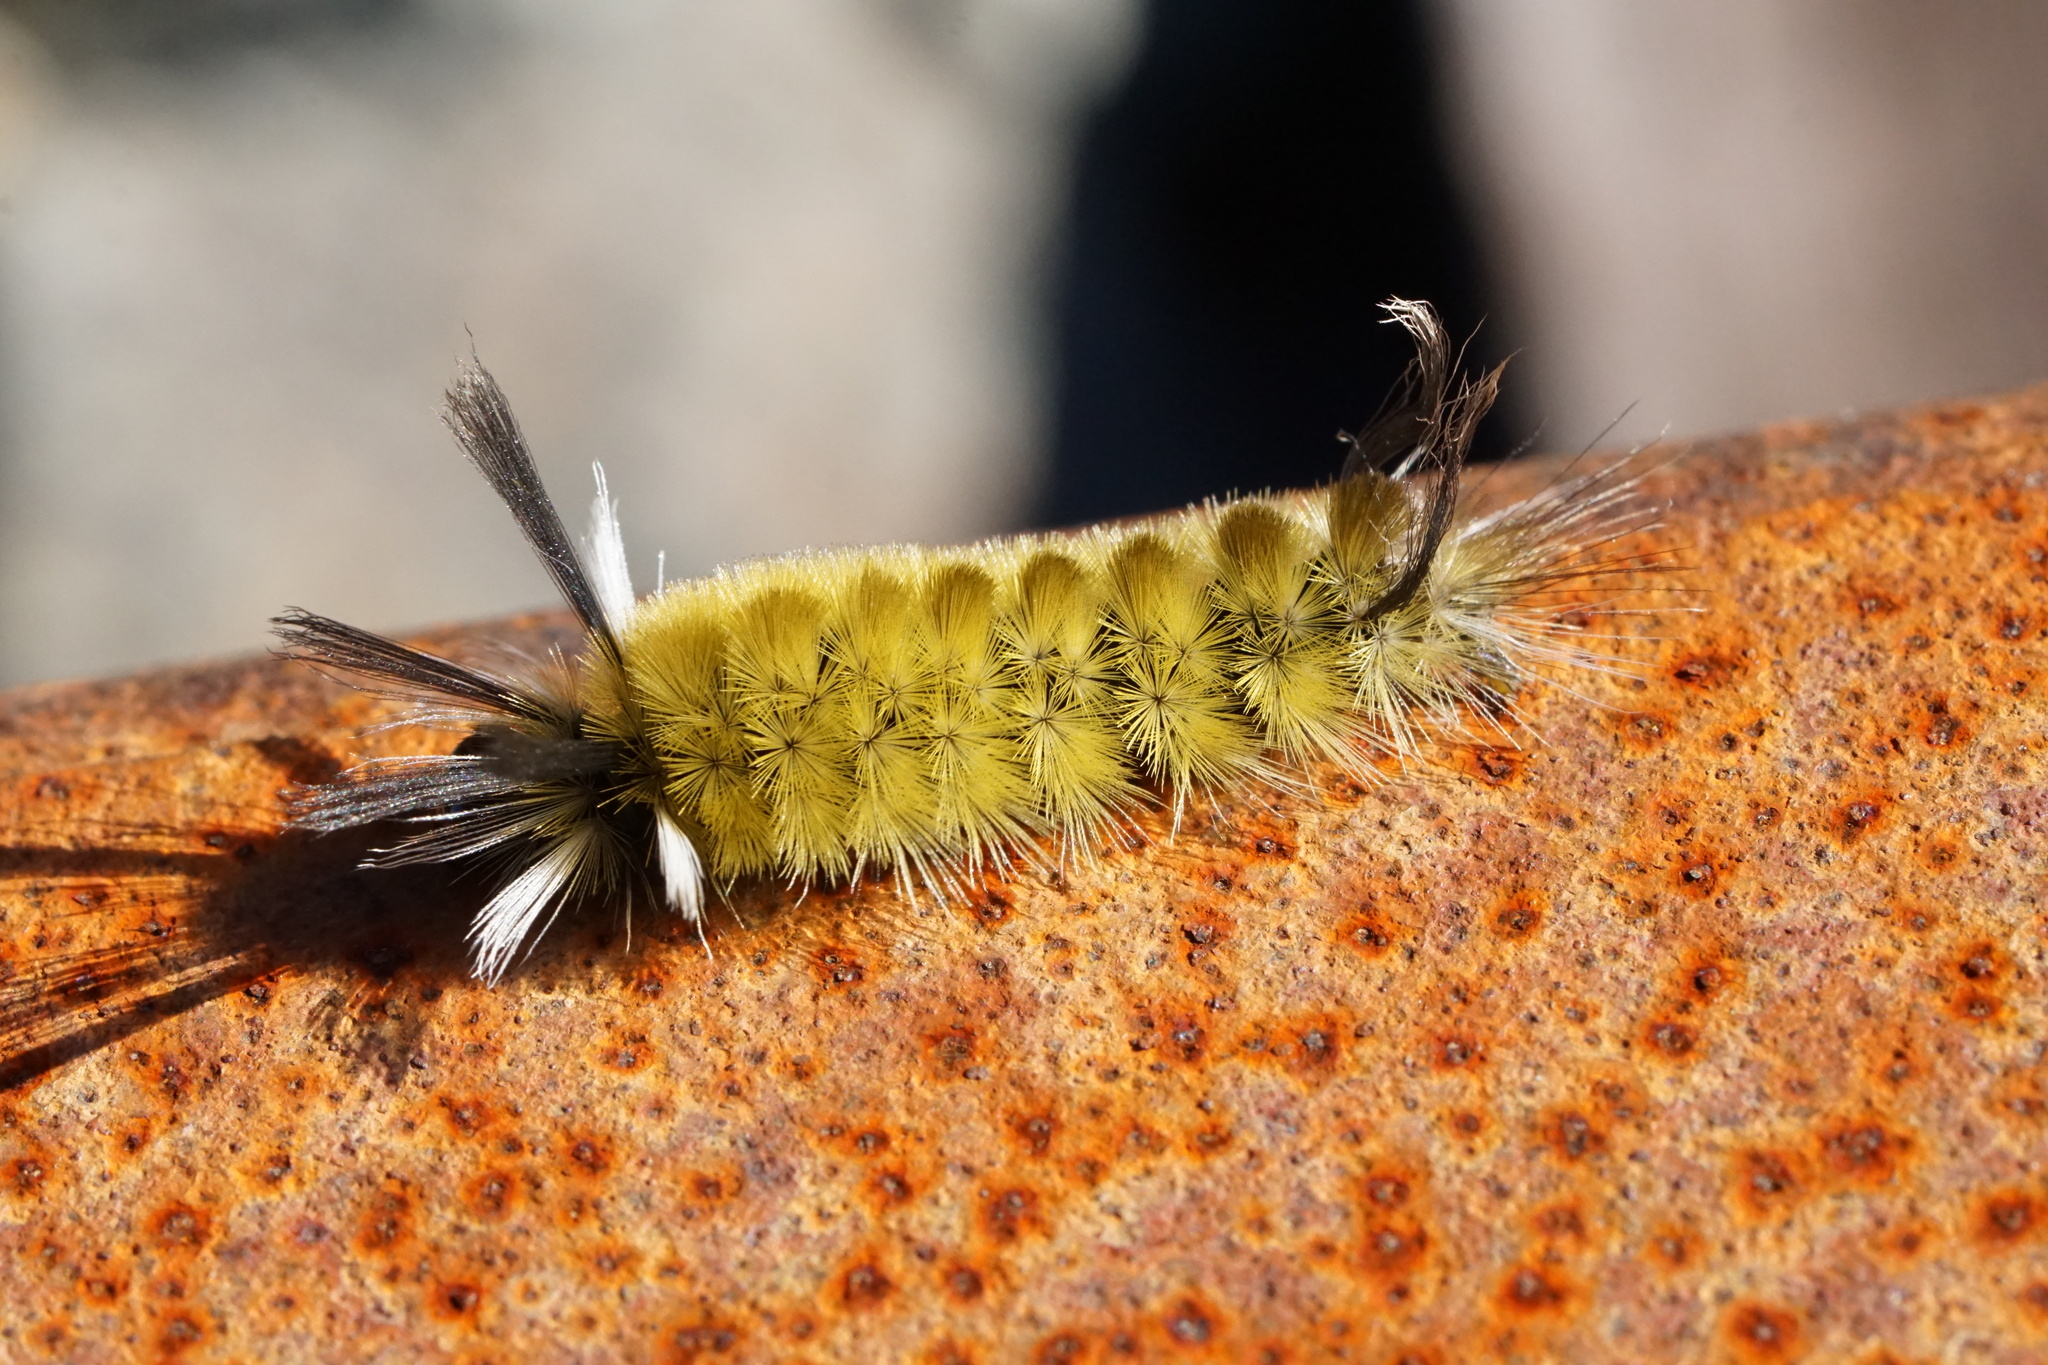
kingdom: Animalia
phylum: Arthropoda
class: Insecta
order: Lepidoptera
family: Erebidae
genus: Halysidota
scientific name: Halysidota tessellaris
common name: Banded tussock moth
